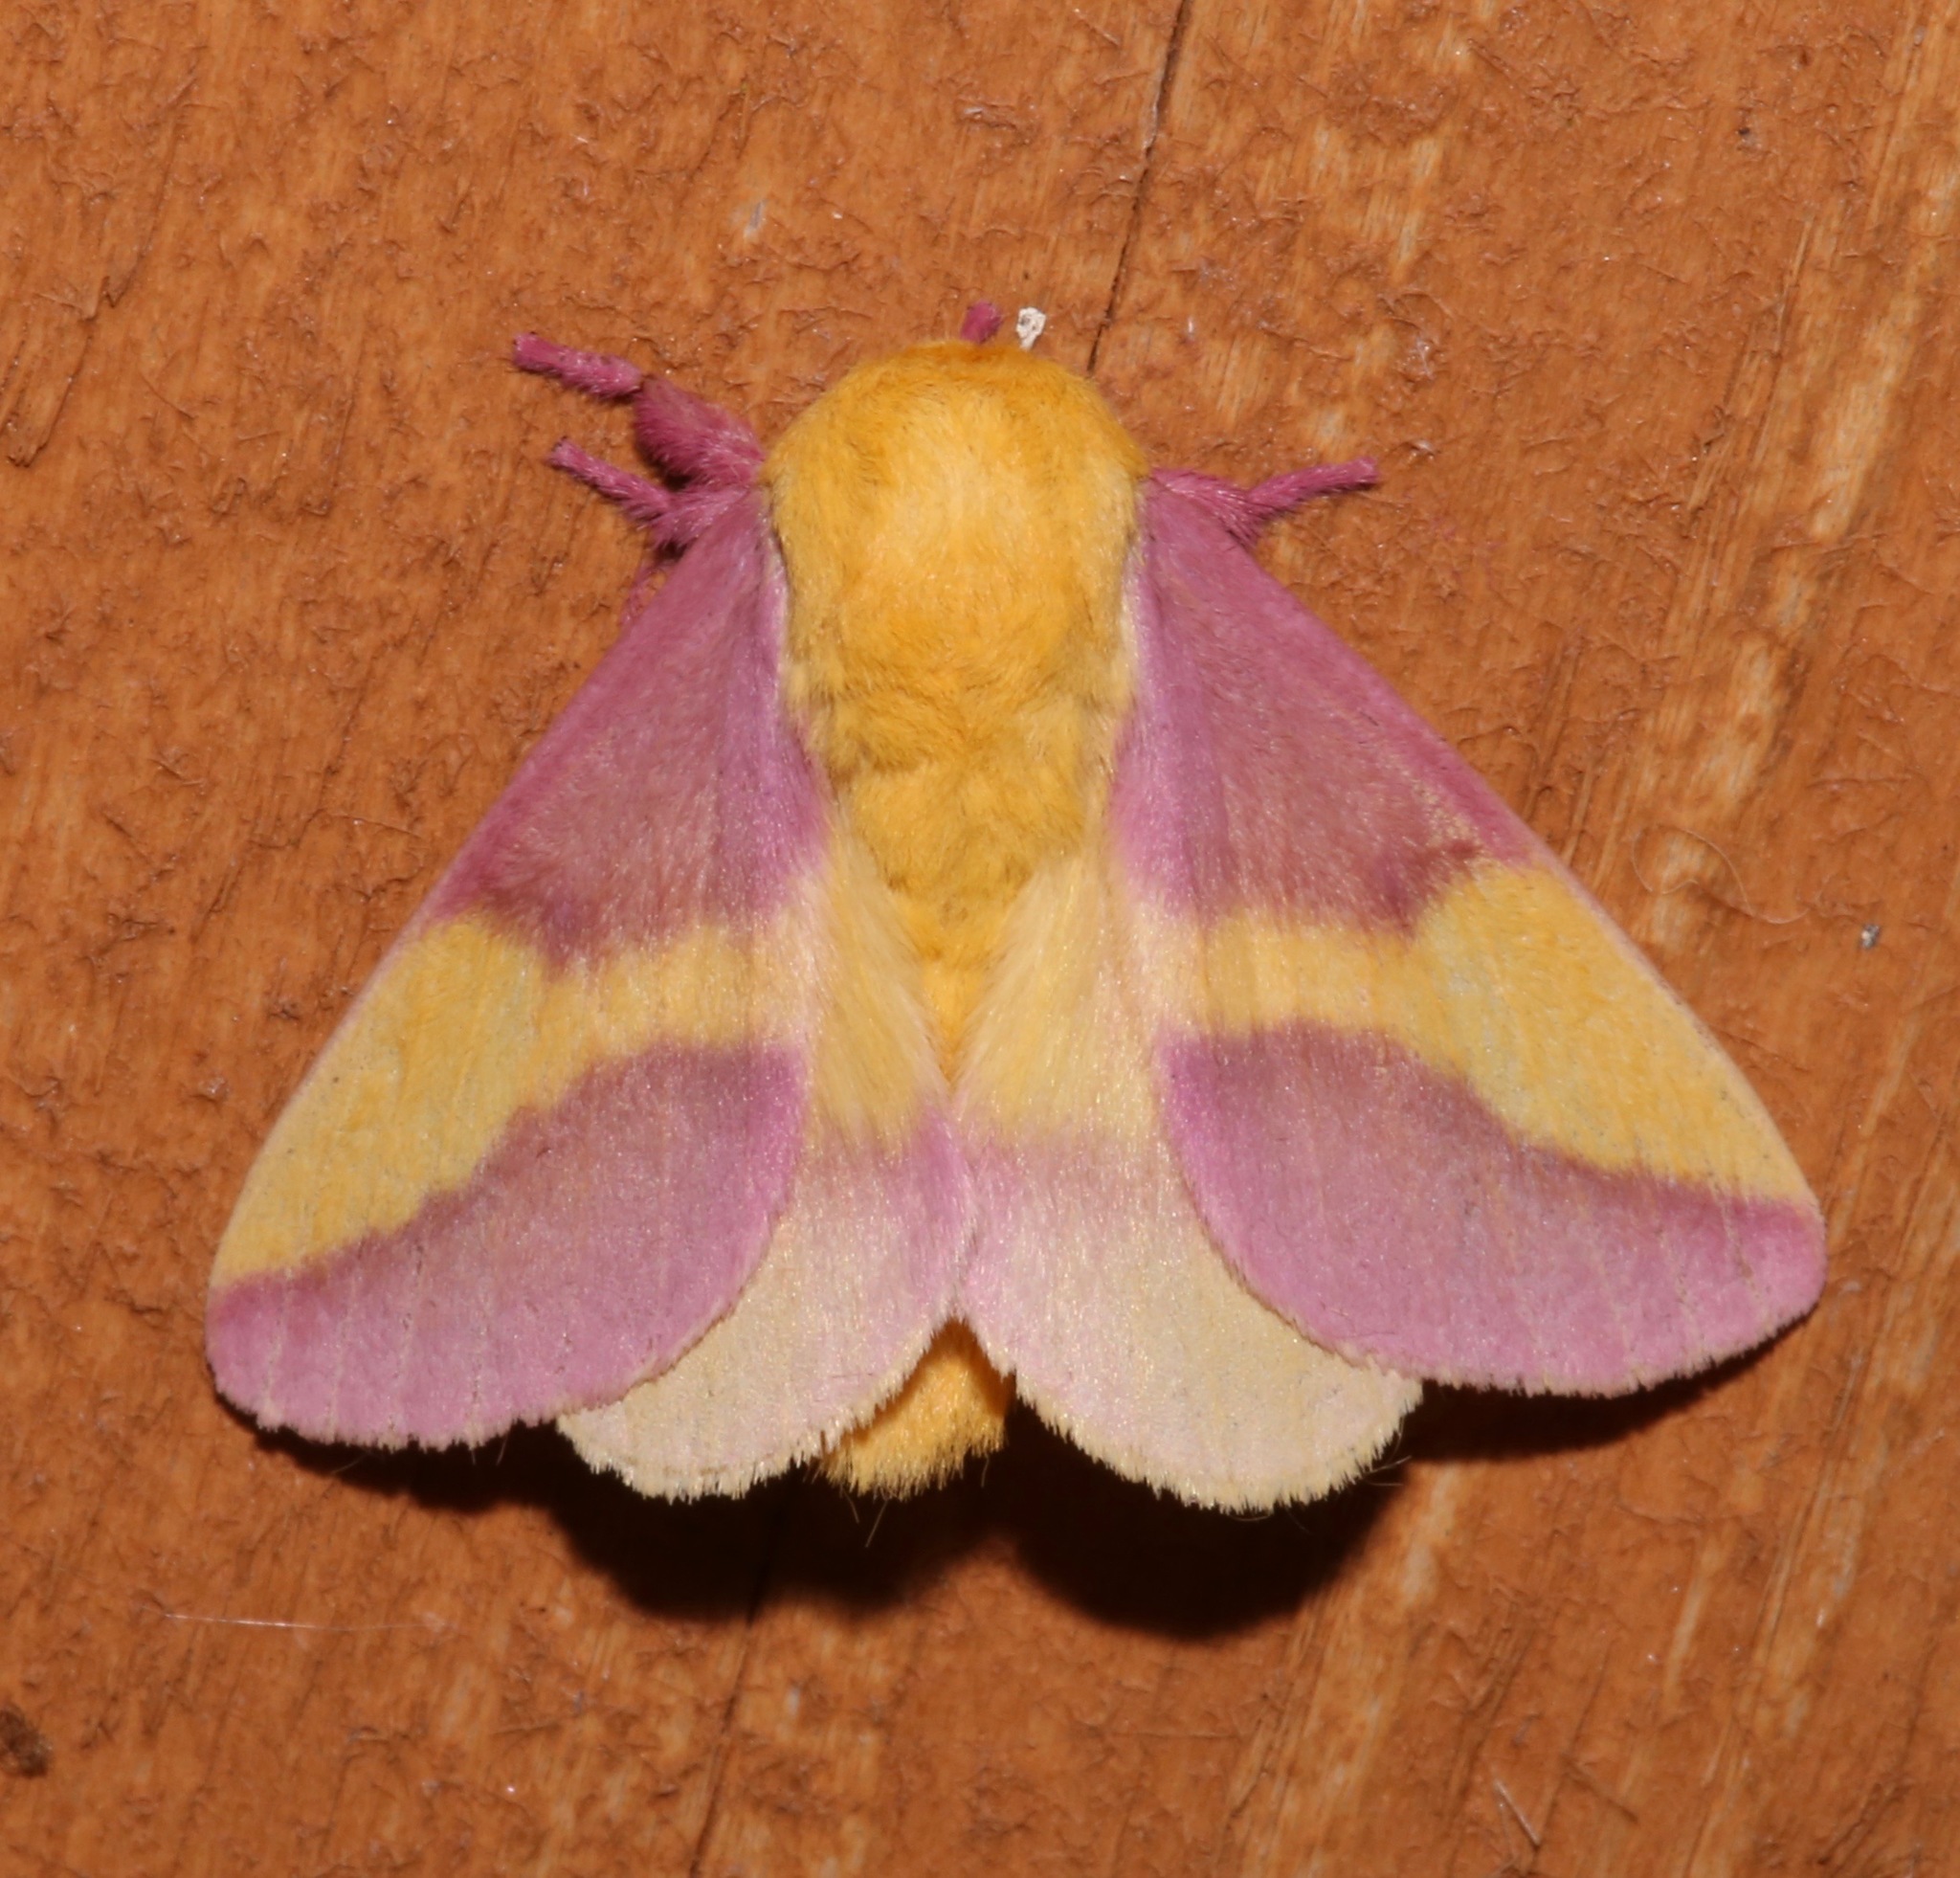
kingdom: Animalia
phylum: Arthropoda
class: Insecta
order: Lepidoptera
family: Saturniidae
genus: Dryocampa
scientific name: Dryocampa rubicunda
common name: Rosy maple moth
